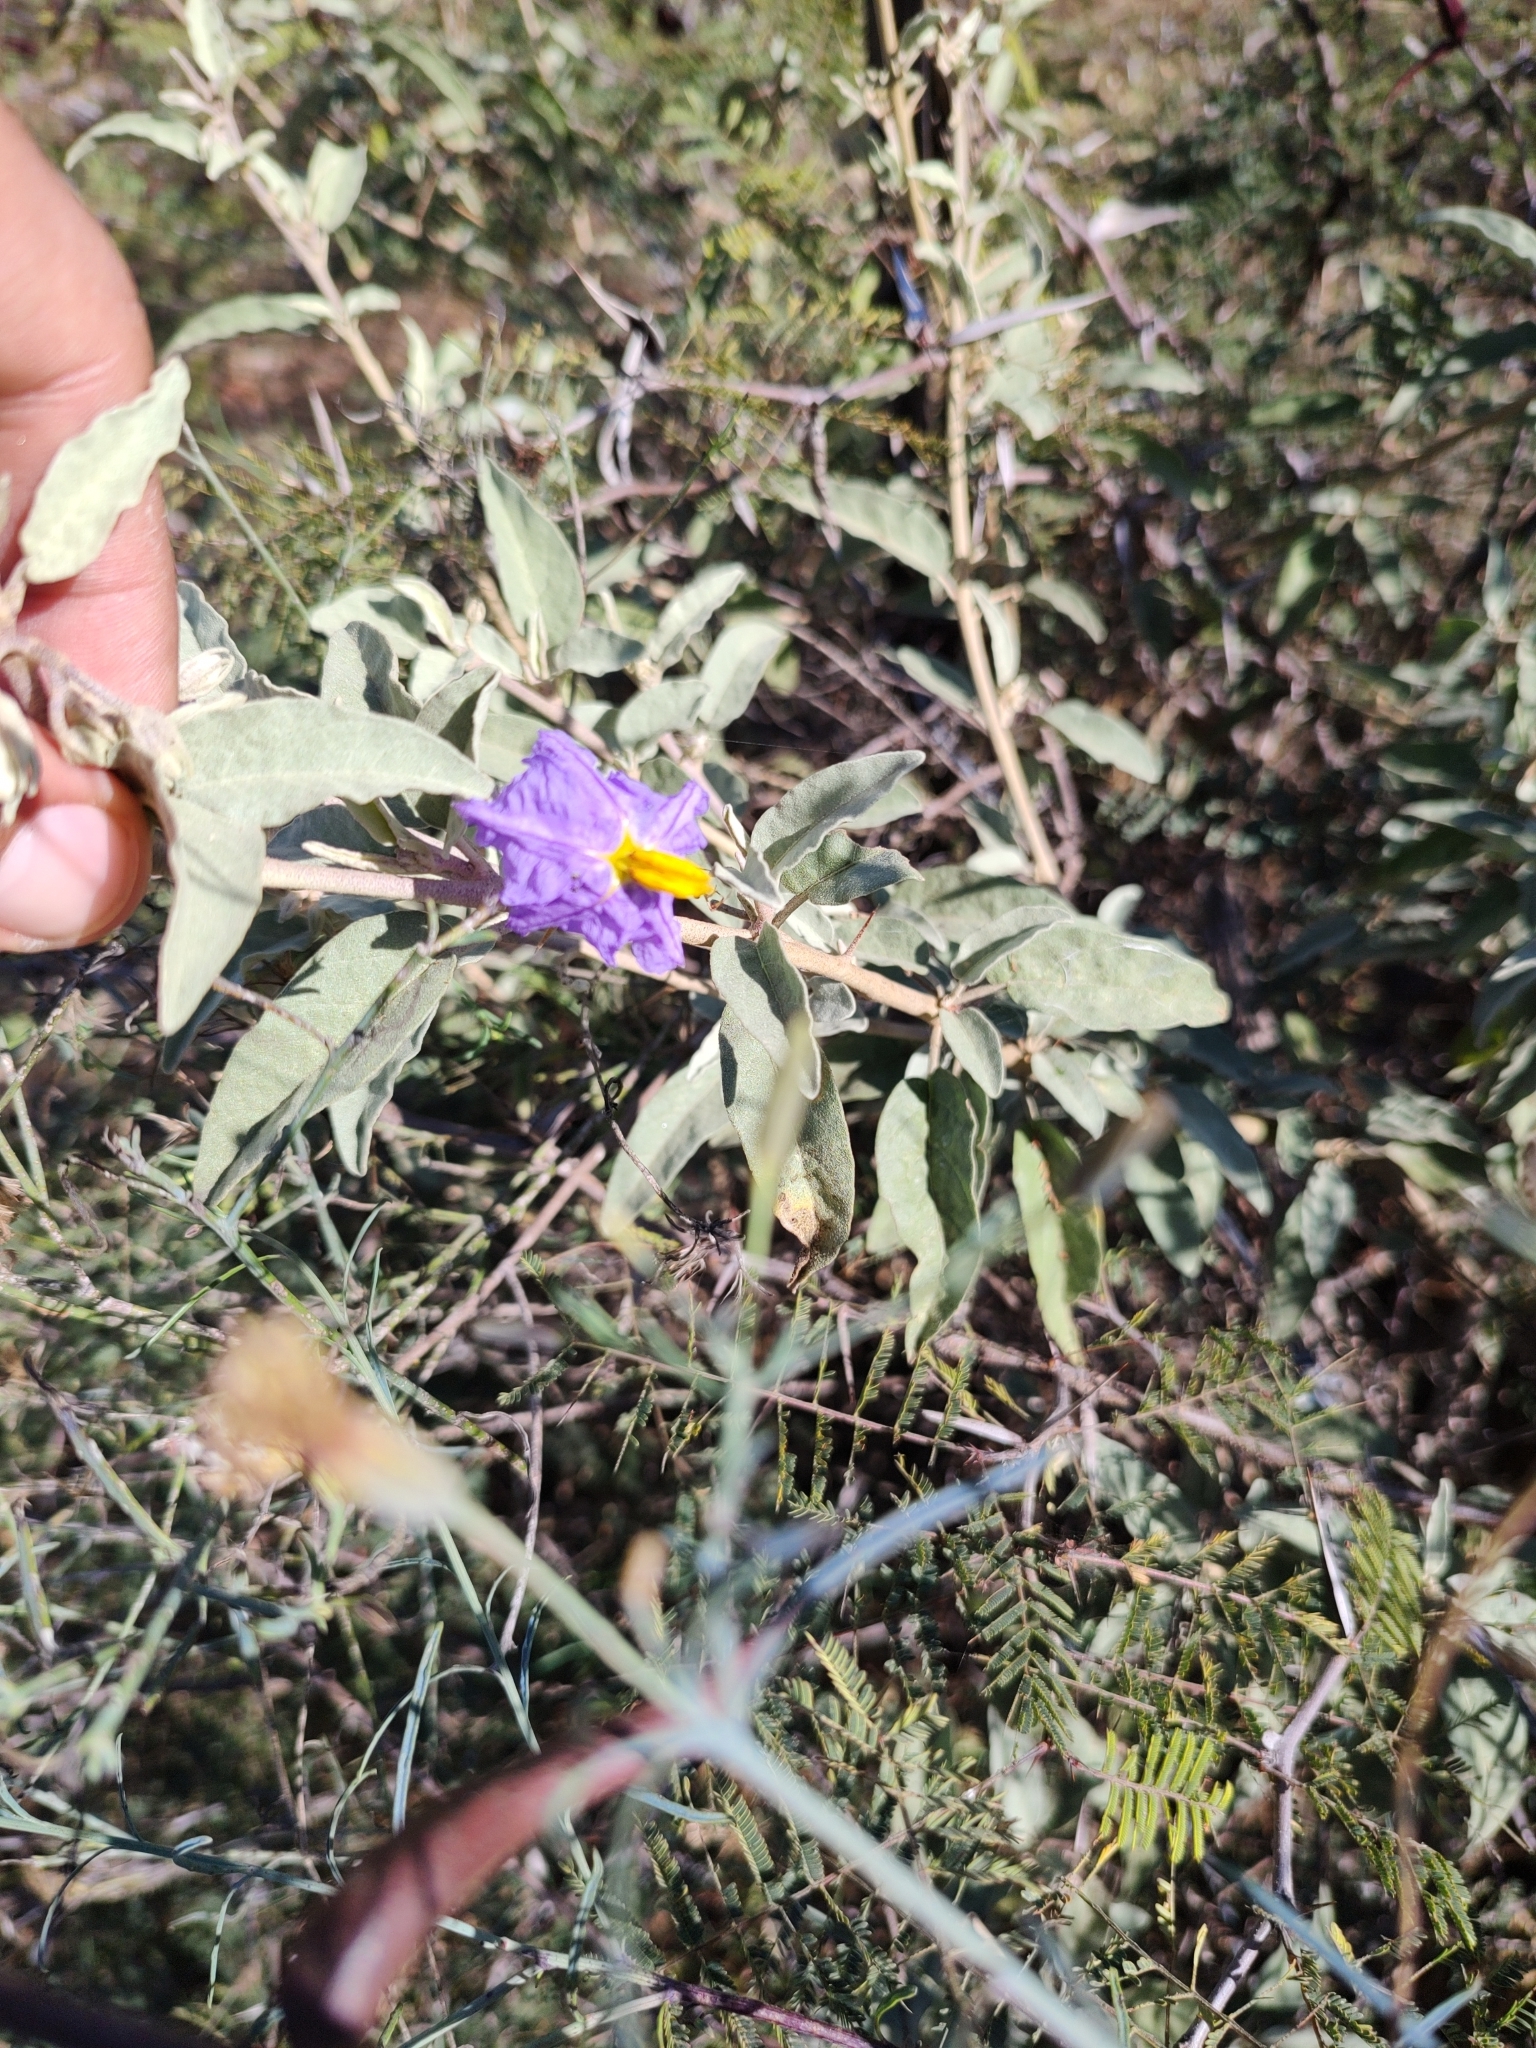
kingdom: Plantae
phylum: Tracheophyta
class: Magnoliopsida
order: Solanales
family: Solanaceae
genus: Solanum
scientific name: Solanum hindsianum
